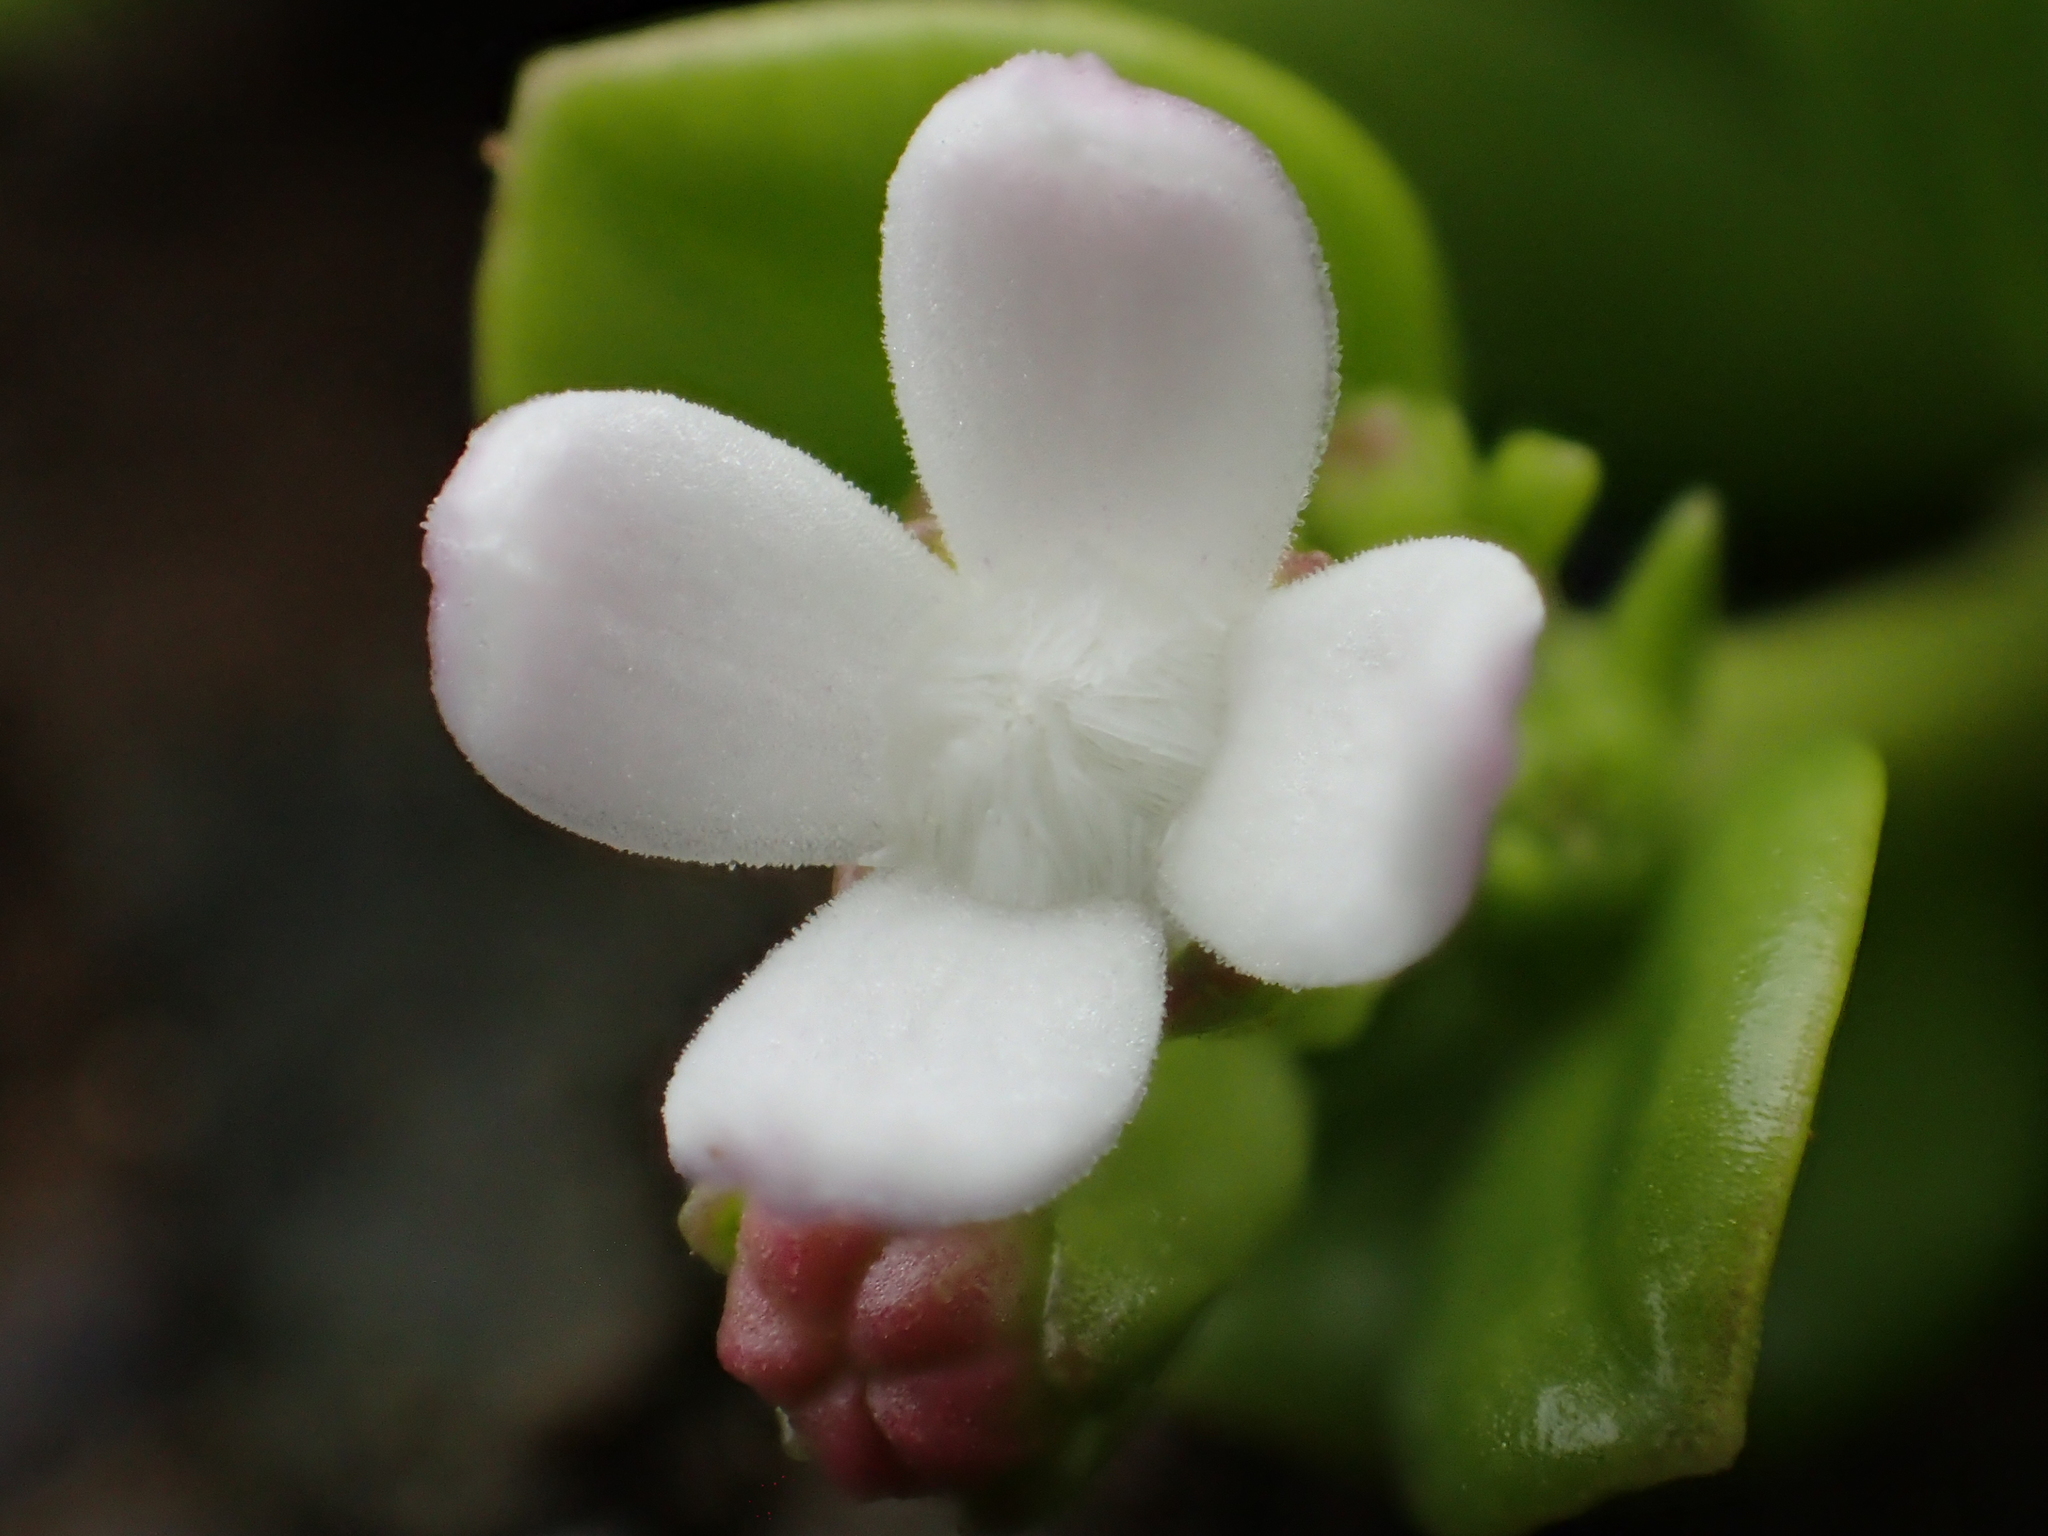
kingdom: Plantae
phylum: Tracheophyta
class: Magnoliopsida
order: Gentianales
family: Rubiaceae
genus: Leptopetalum
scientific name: Leptopetalum strigulosum
